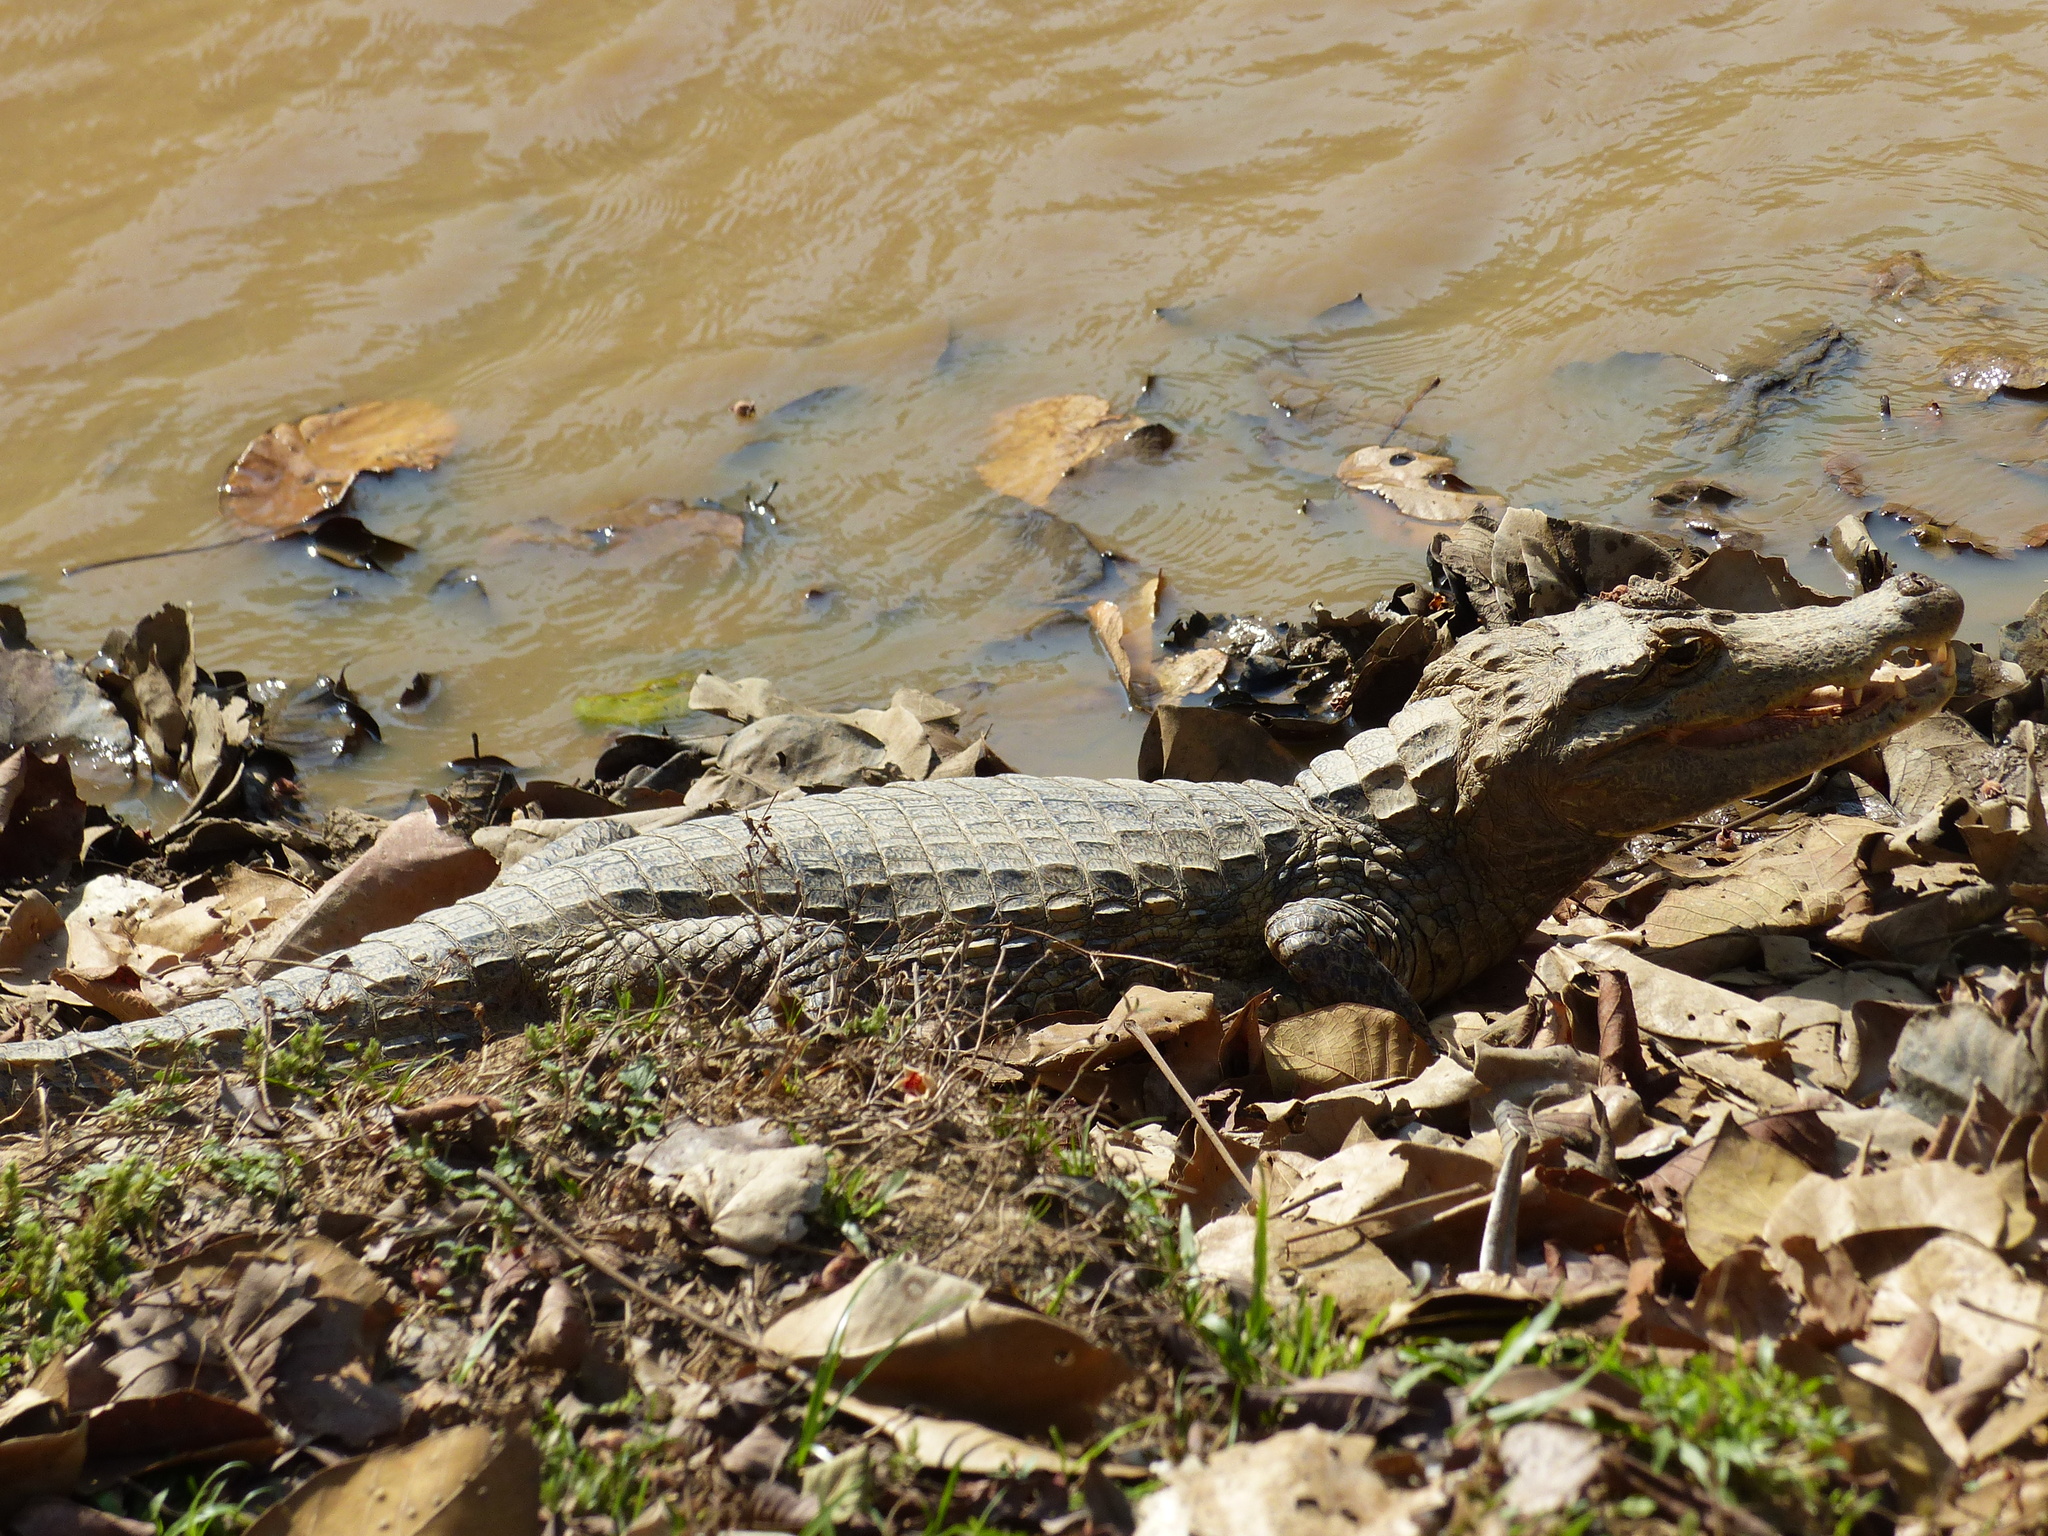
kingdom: Animalia
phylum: Chordata
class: Crocodylia
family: Alligatoridae
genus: Caiman
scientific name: Caiman crocodilus
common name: Common caiman
